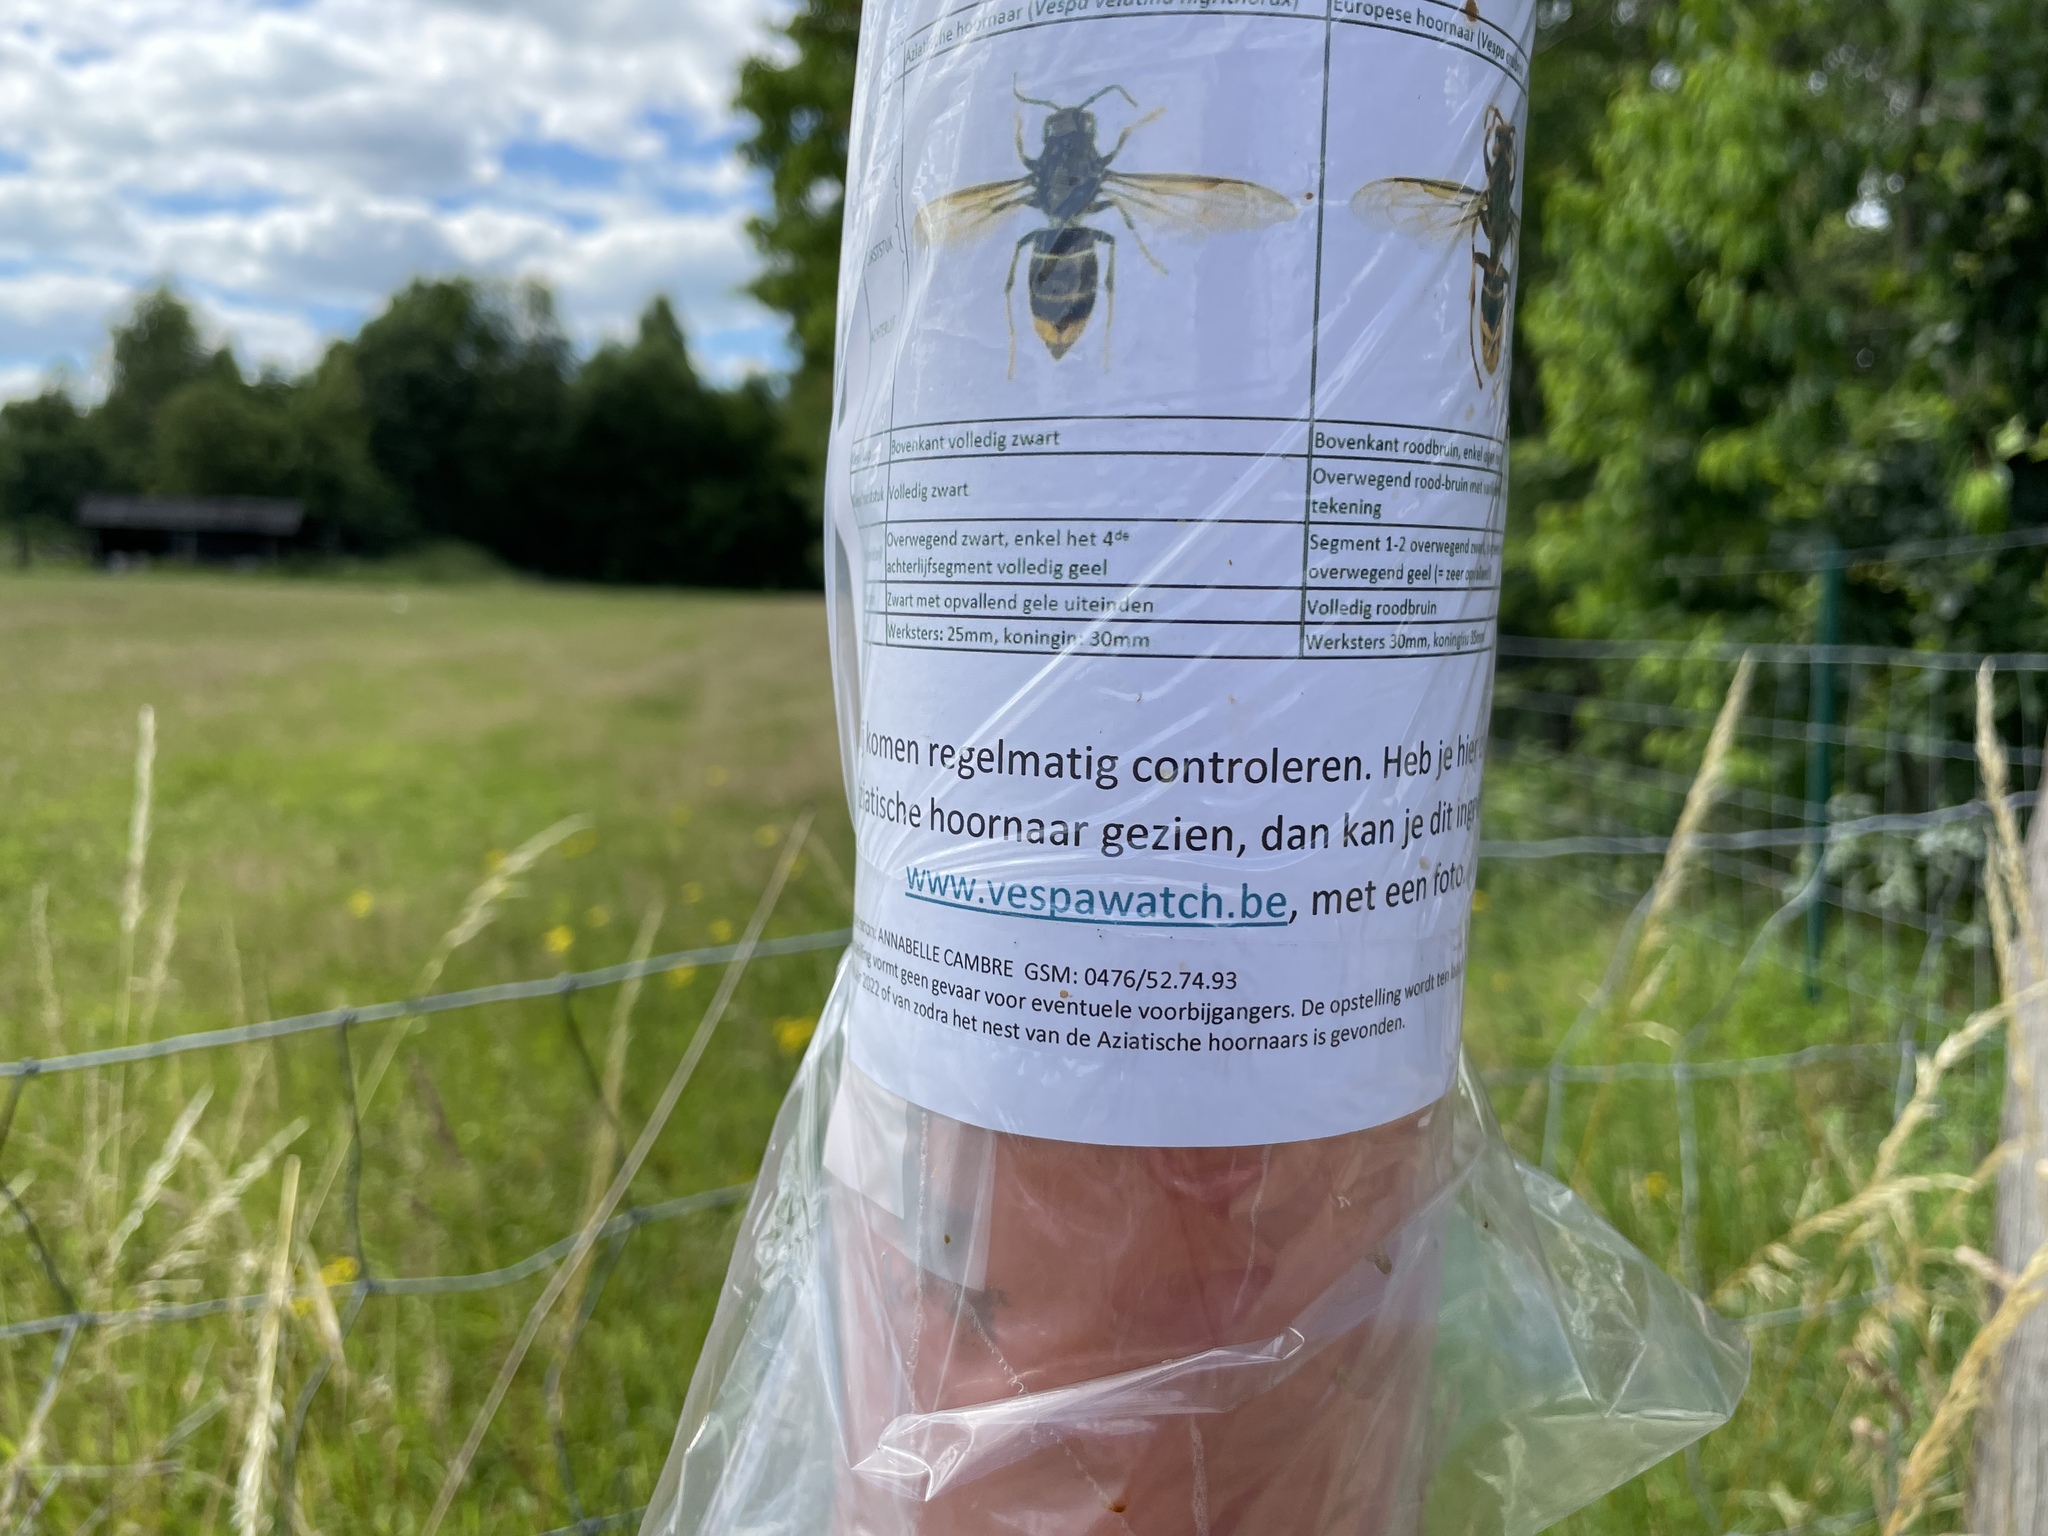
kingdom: Animalia
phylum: Arthropoda
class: Insecta
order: Hymenoptera
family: Vespidae
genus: Dolichovespula
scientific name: Dolichovespula media
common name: Median wasp
